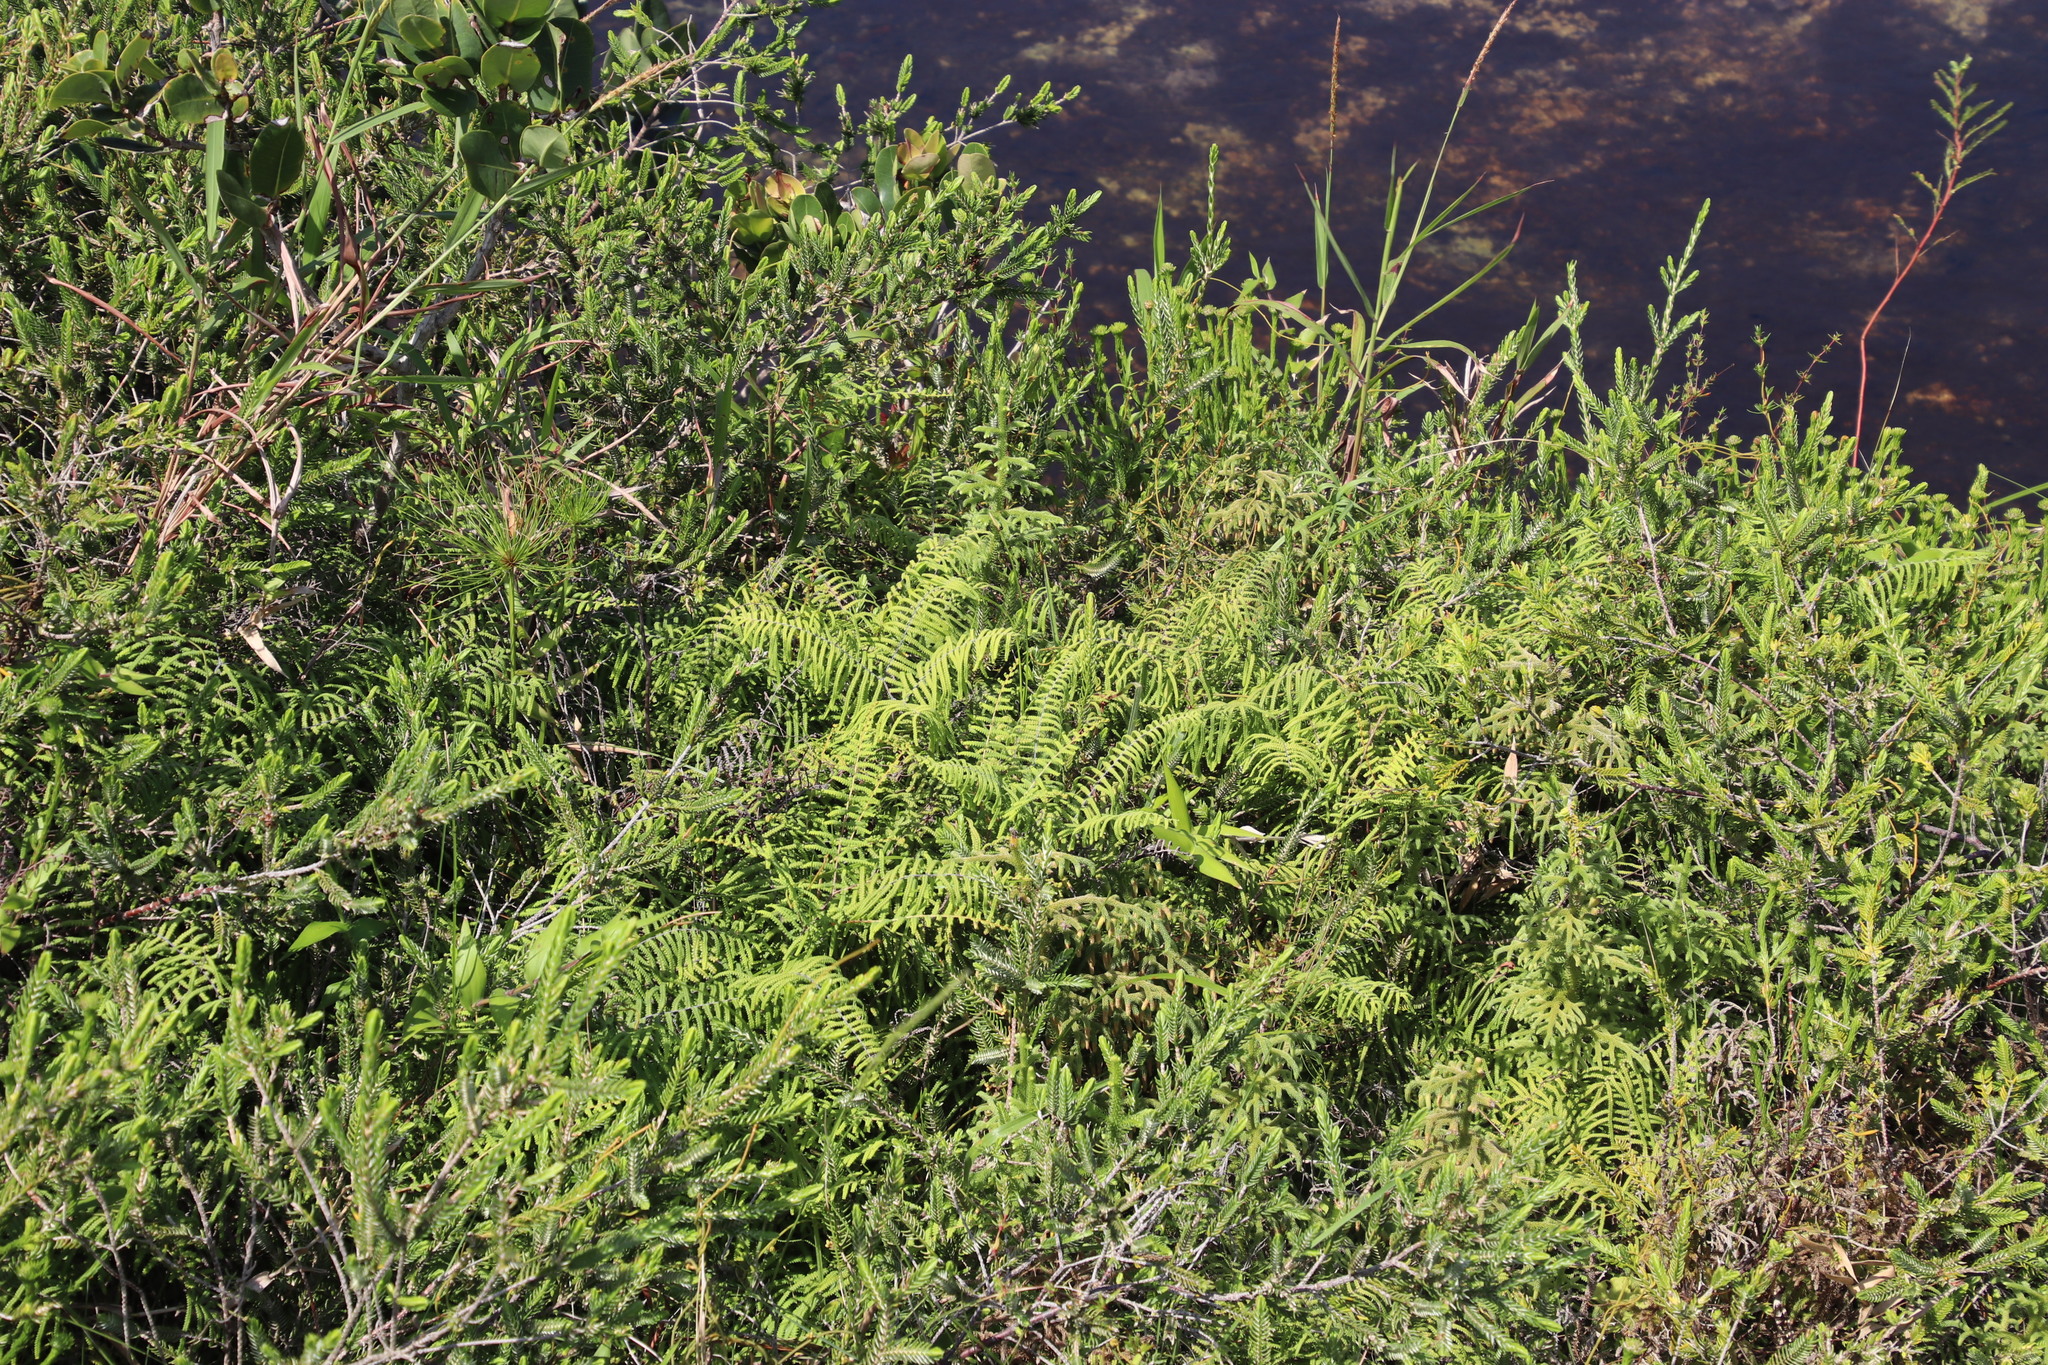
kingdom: Plantae
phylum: Tracheophyta
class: Polypodiopsida
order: Gleicheniales
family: Gleicheniaceae
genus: Gleichenia
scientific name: Gleichenia polypodioides
